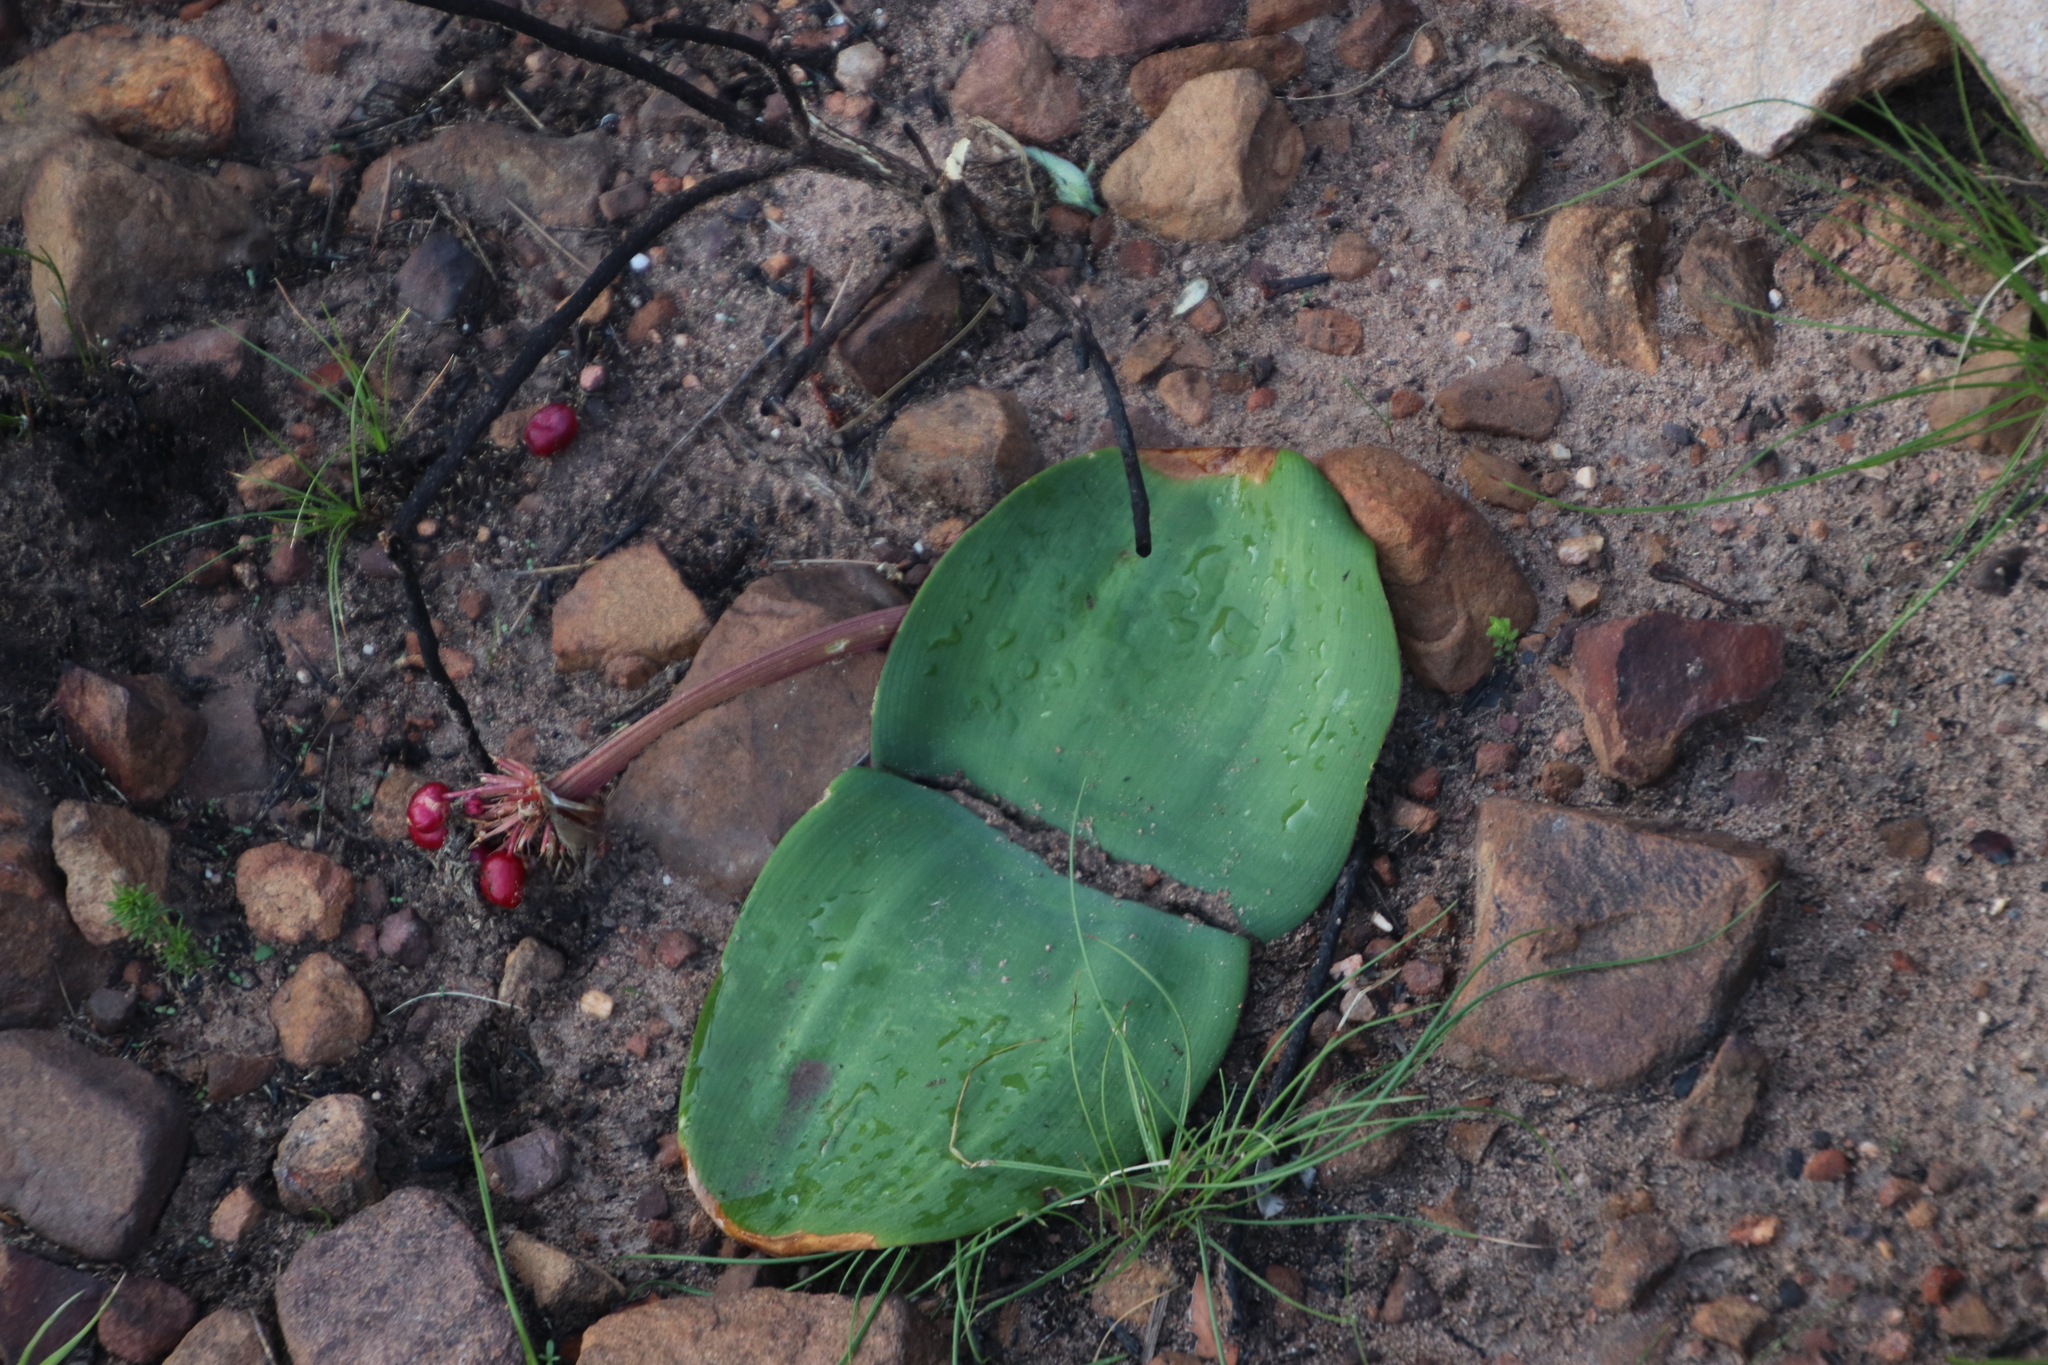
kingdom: Plantae
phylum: Tracheophyta
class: Liliopsida
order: Asparagales
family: Amaryllidaceae
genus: Haemanthus
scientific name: Haemanthus sanguineus
